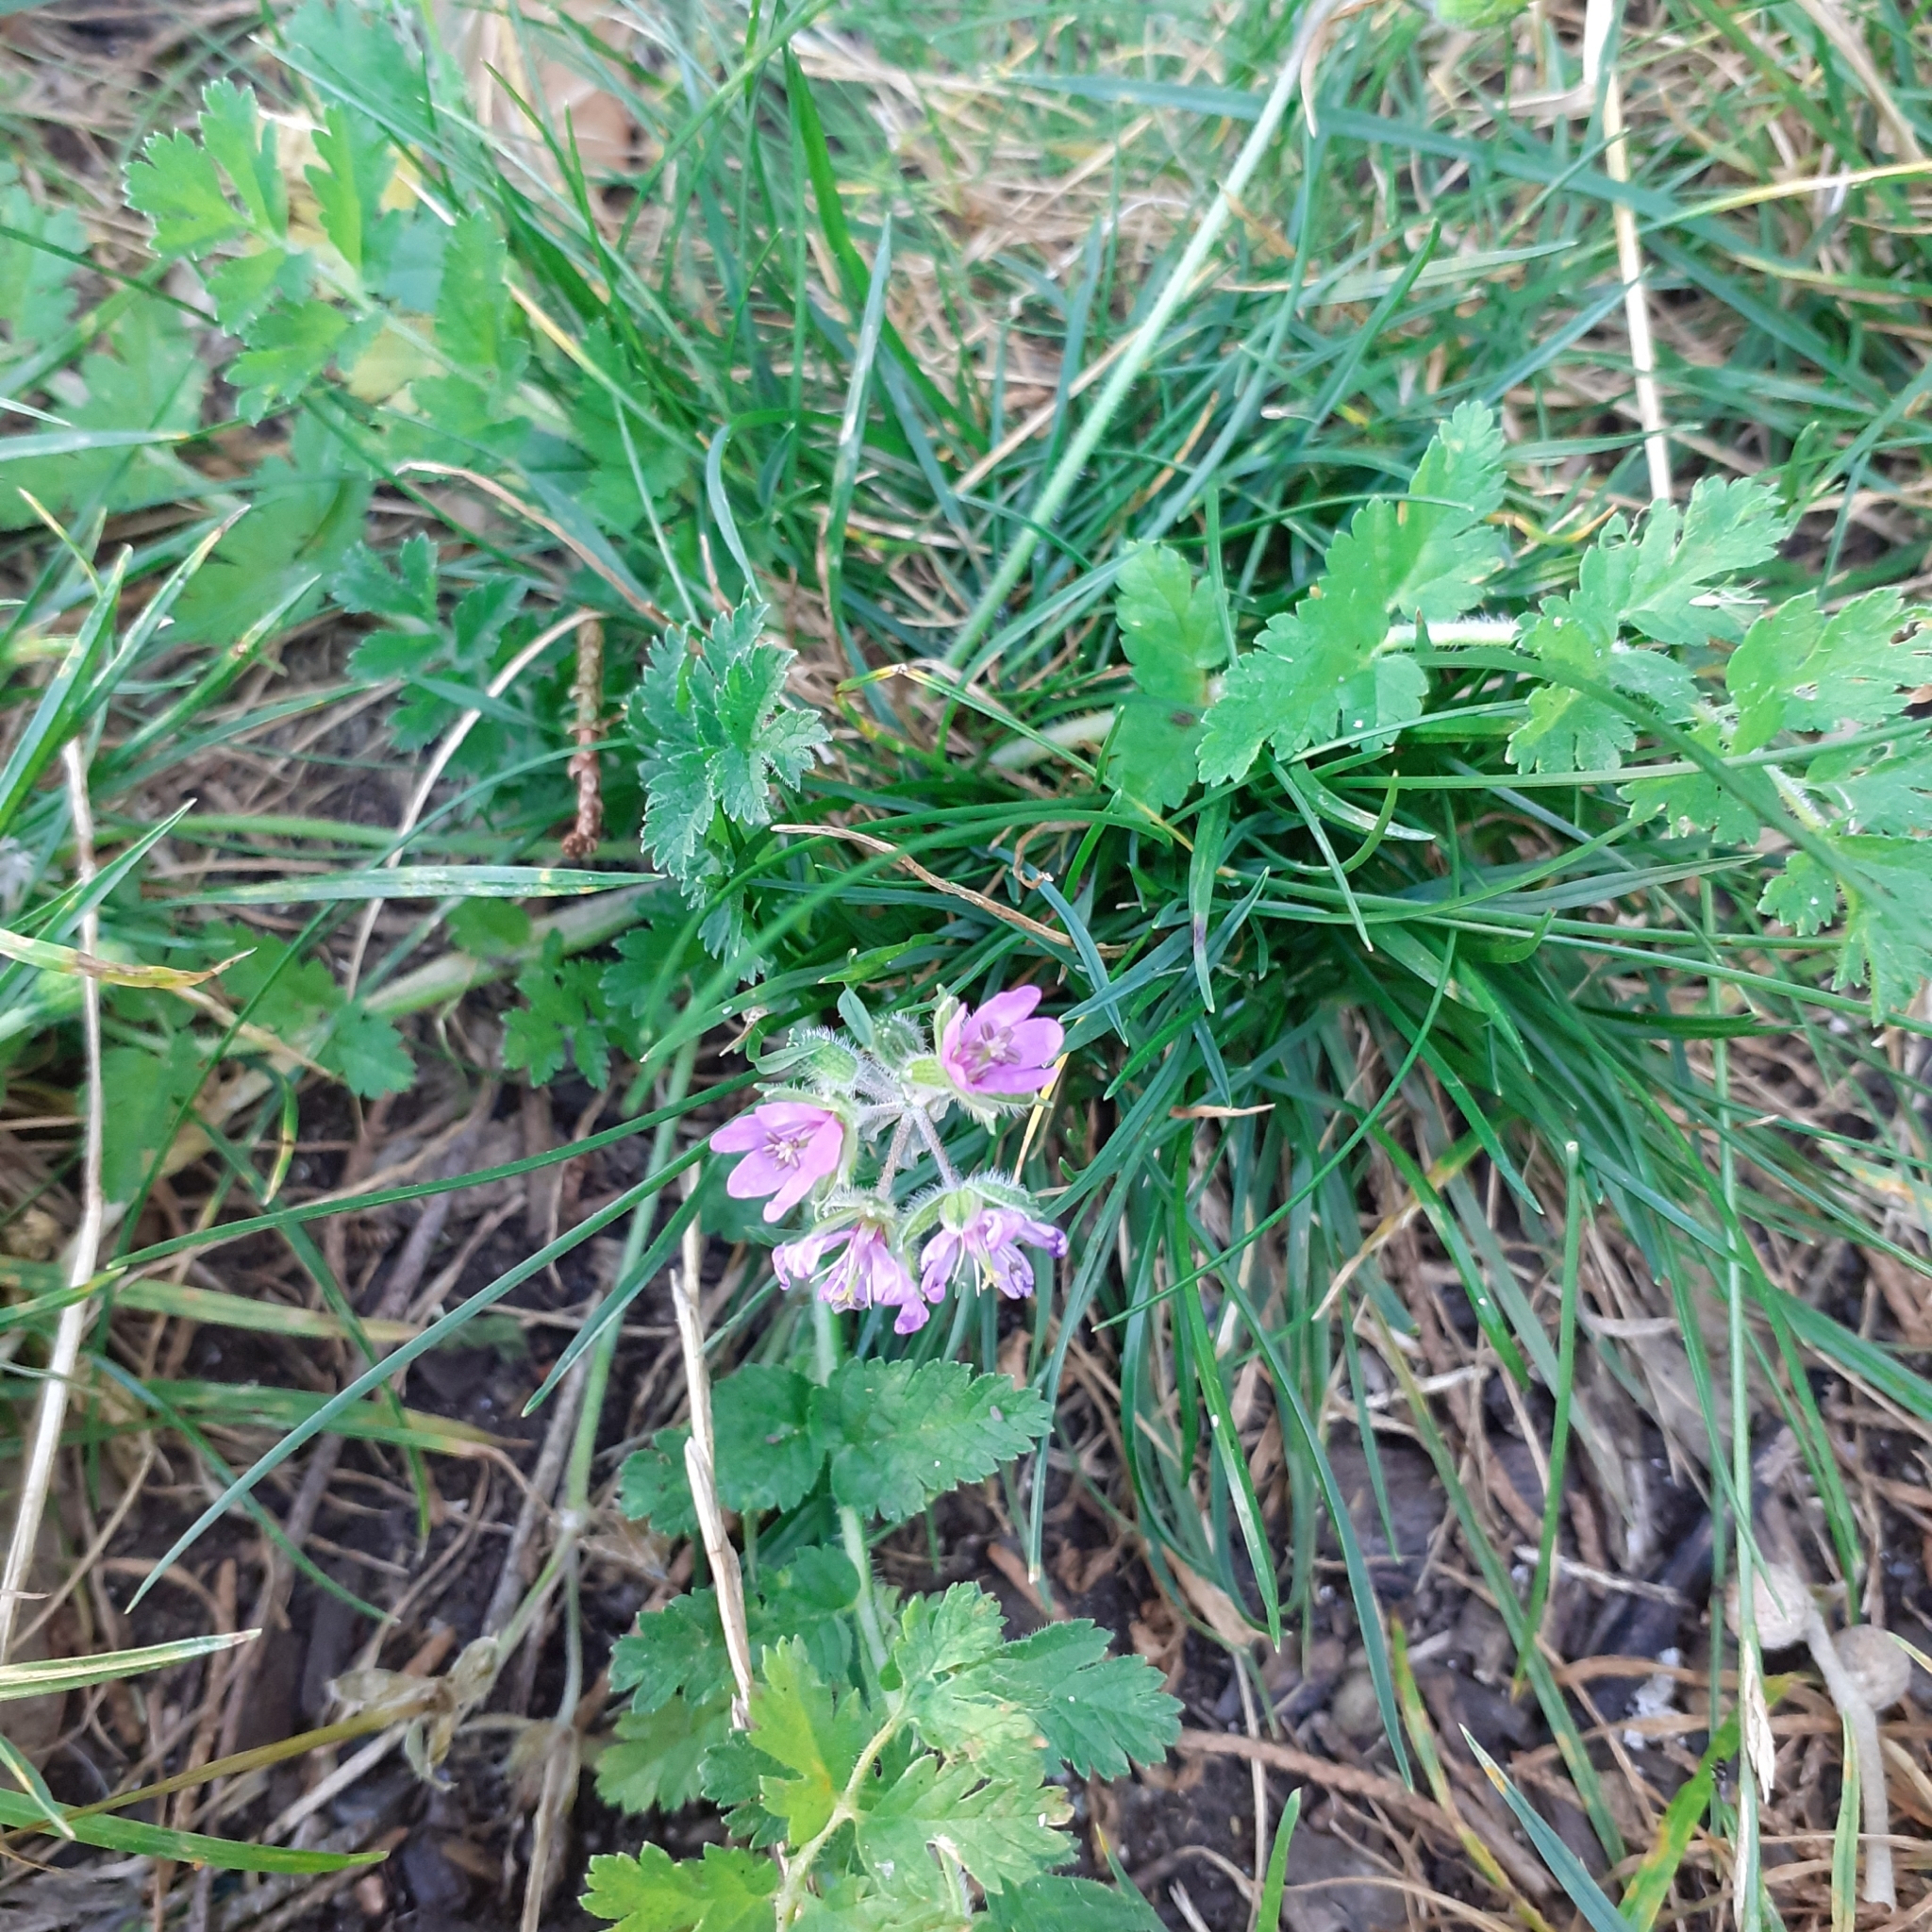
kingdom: Plantae
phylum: Tracheophyta
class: Magnoliopsida
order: Geraniales
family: Geraniaceae
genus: Erodium
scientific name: Erodium moschatum
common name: Musk stork's-bill
